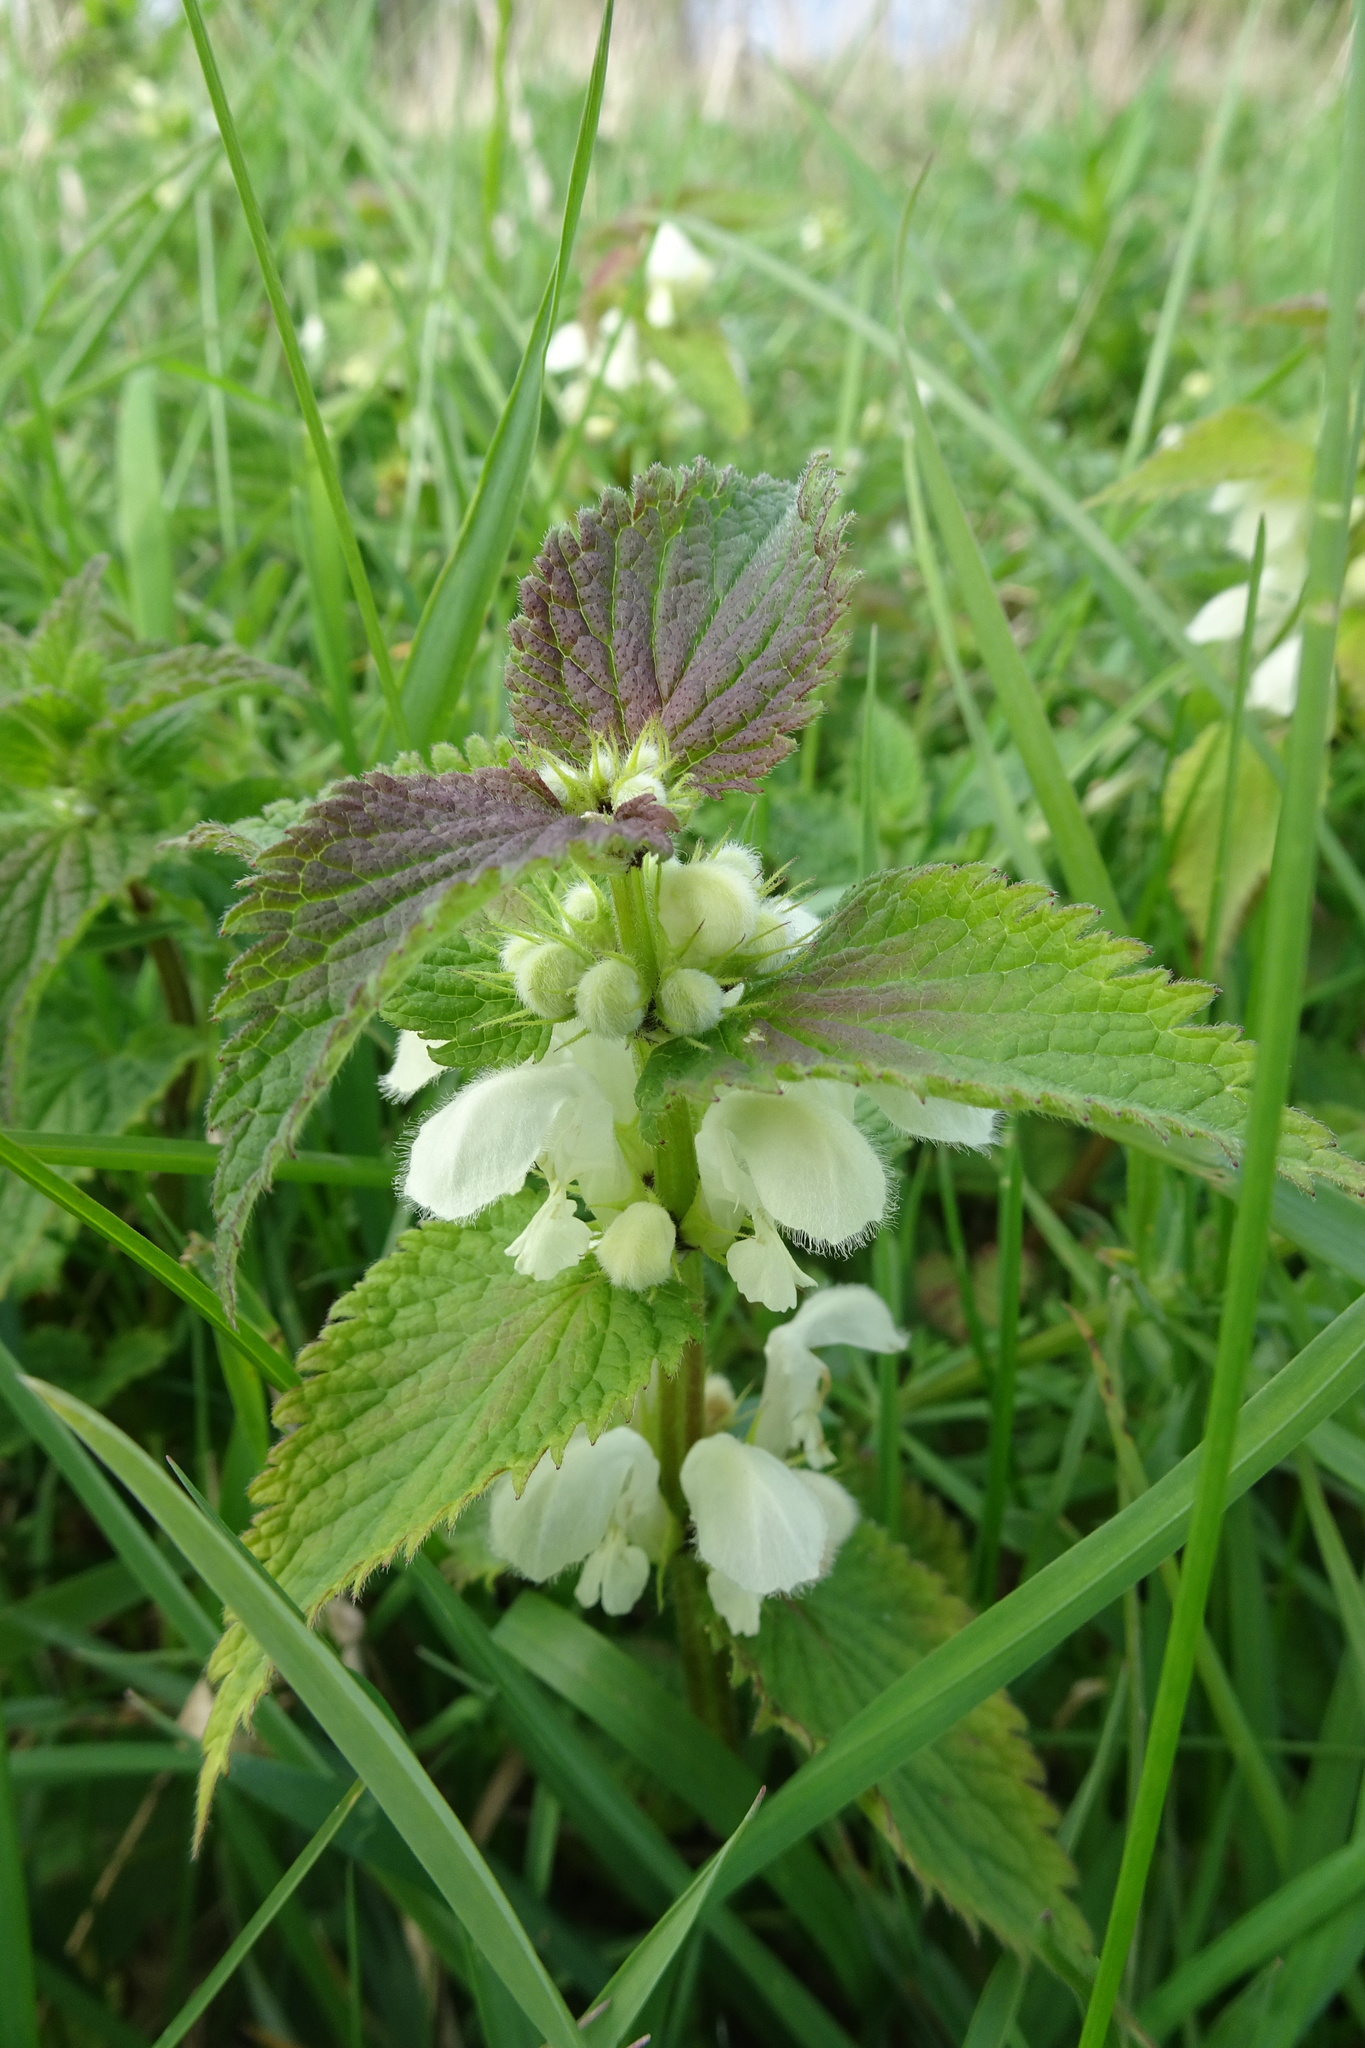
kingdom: Plantae
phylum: Tracheophyta
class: Magnoliopsida
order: Lamiales
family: Lamiaceae
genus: Lamium
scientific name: Lamium album
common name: White dead-nettle
